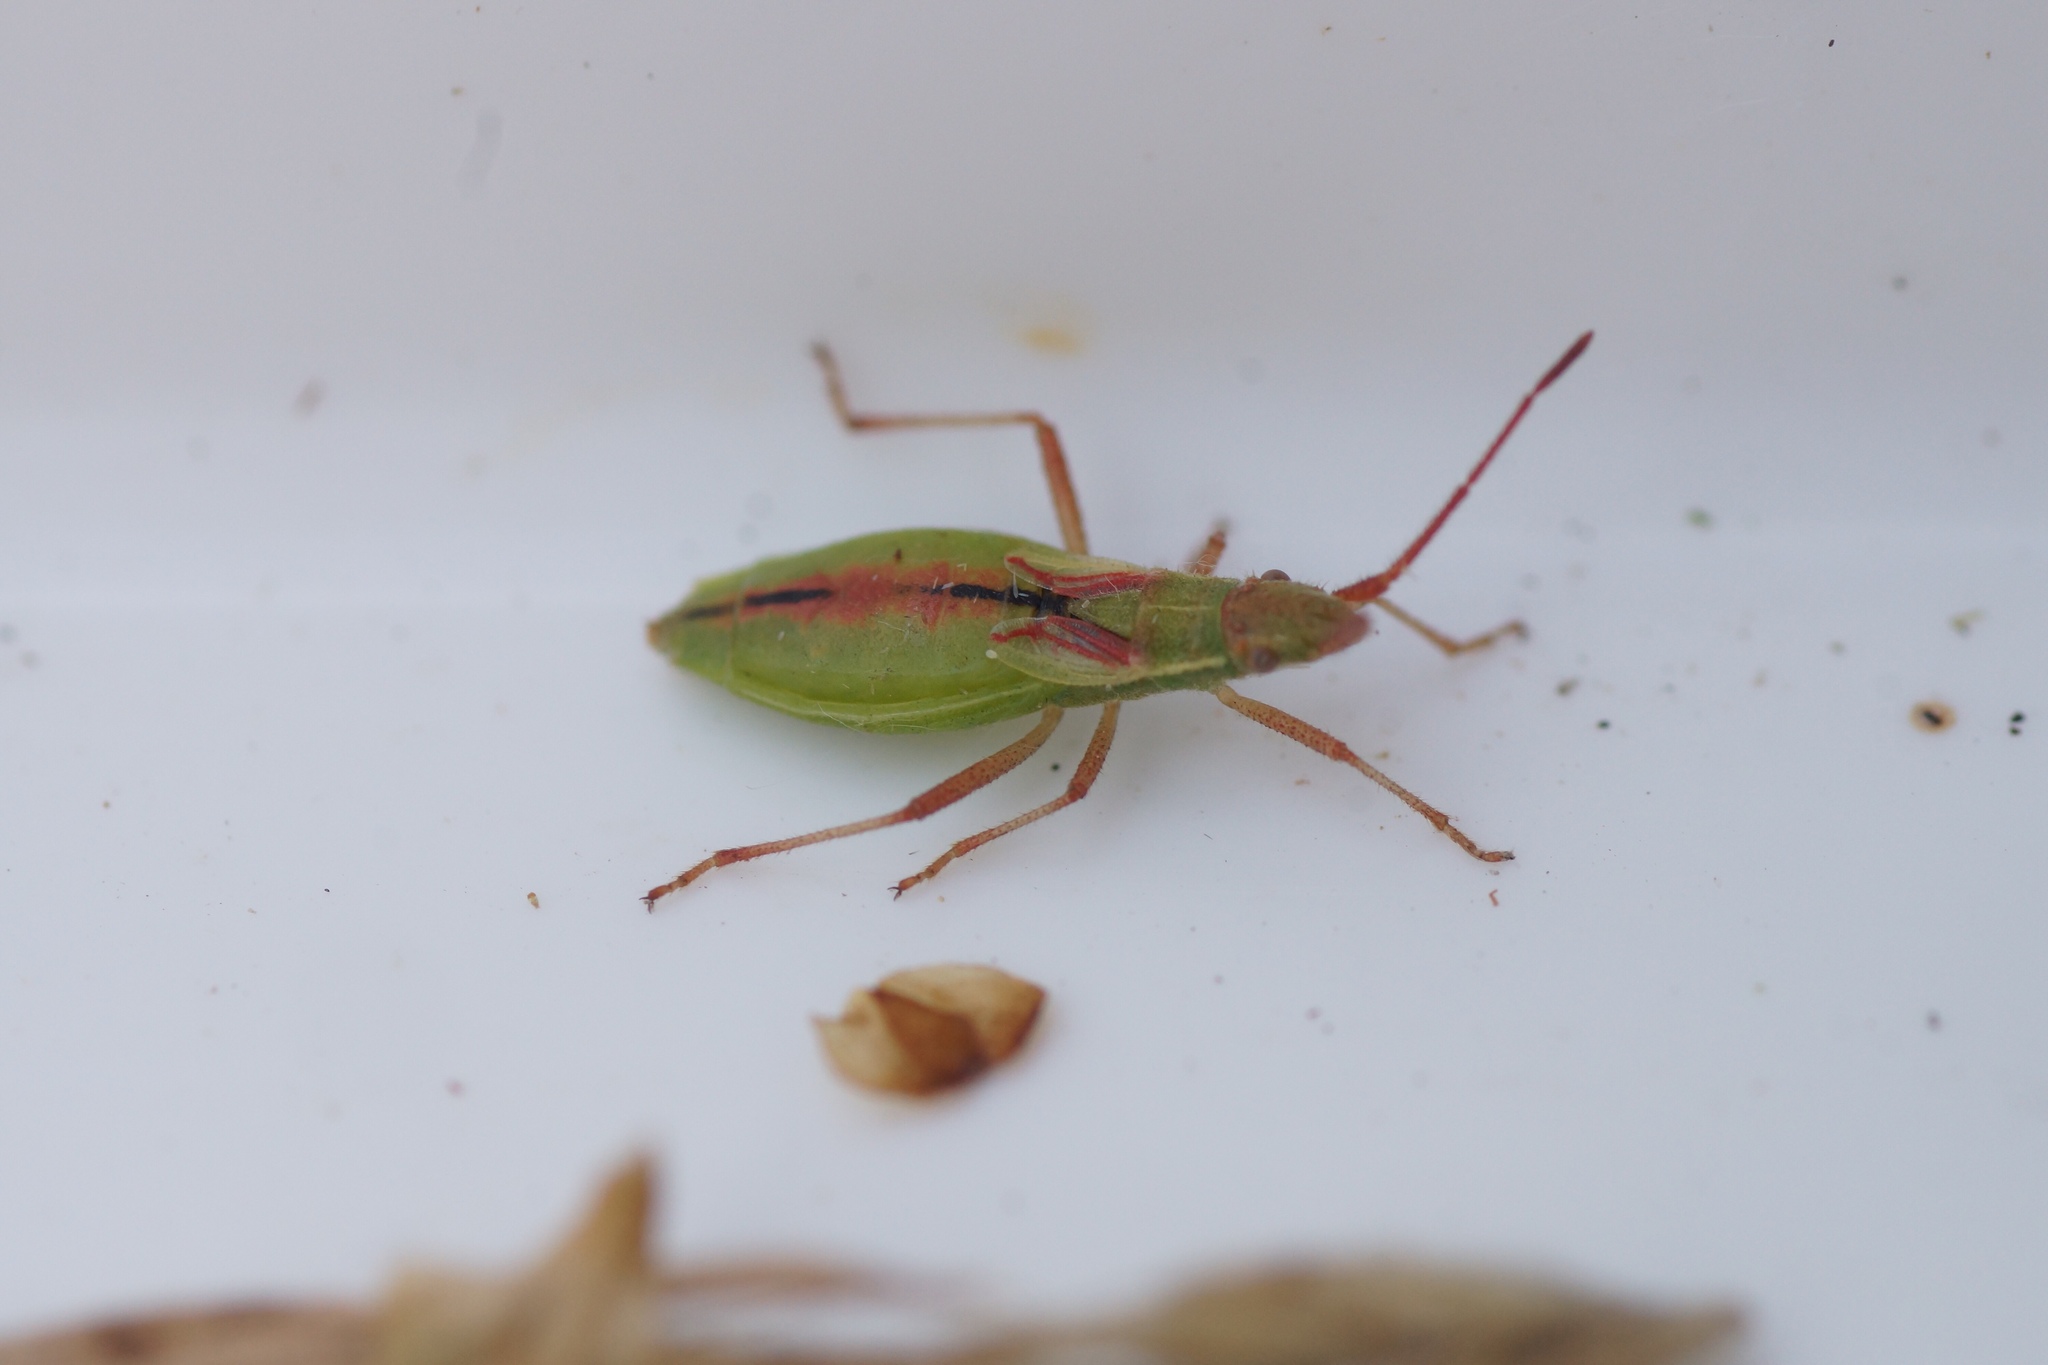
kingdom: Animalia
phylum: Arthropoda
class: Insecta
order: Hemiptera
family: Rhopalidae
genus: Myrmus
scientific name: Myrmus miriformis
